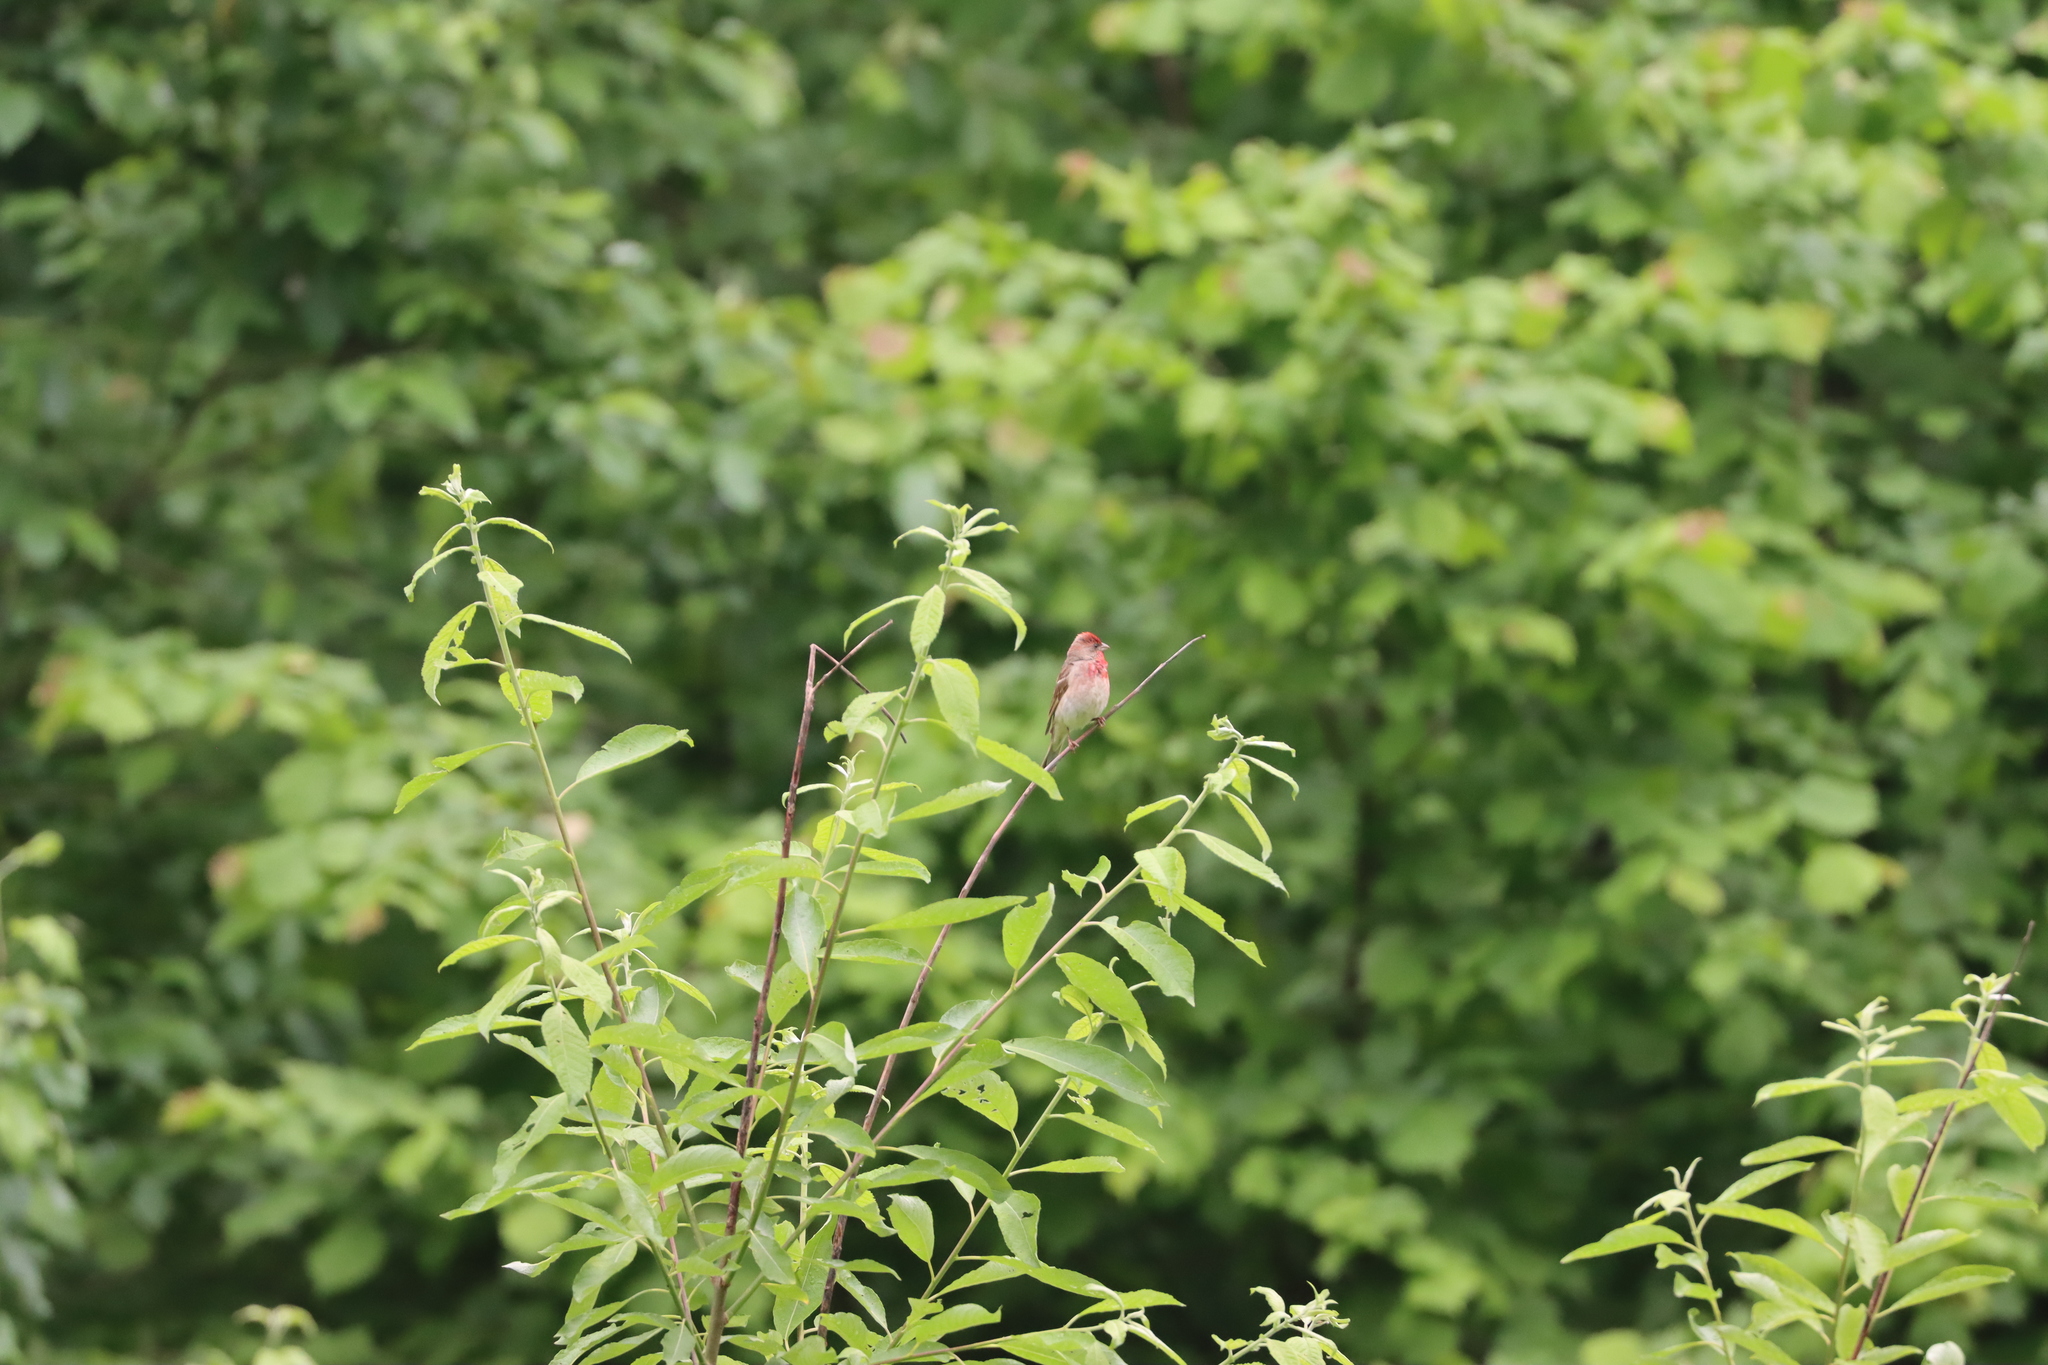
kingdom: Animalia
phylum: Chordata
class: Aves
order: Passeriformes
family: Fringillidae
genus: Carpodacus
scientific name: Carpodacus erythrinus
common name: Common rosefinch
